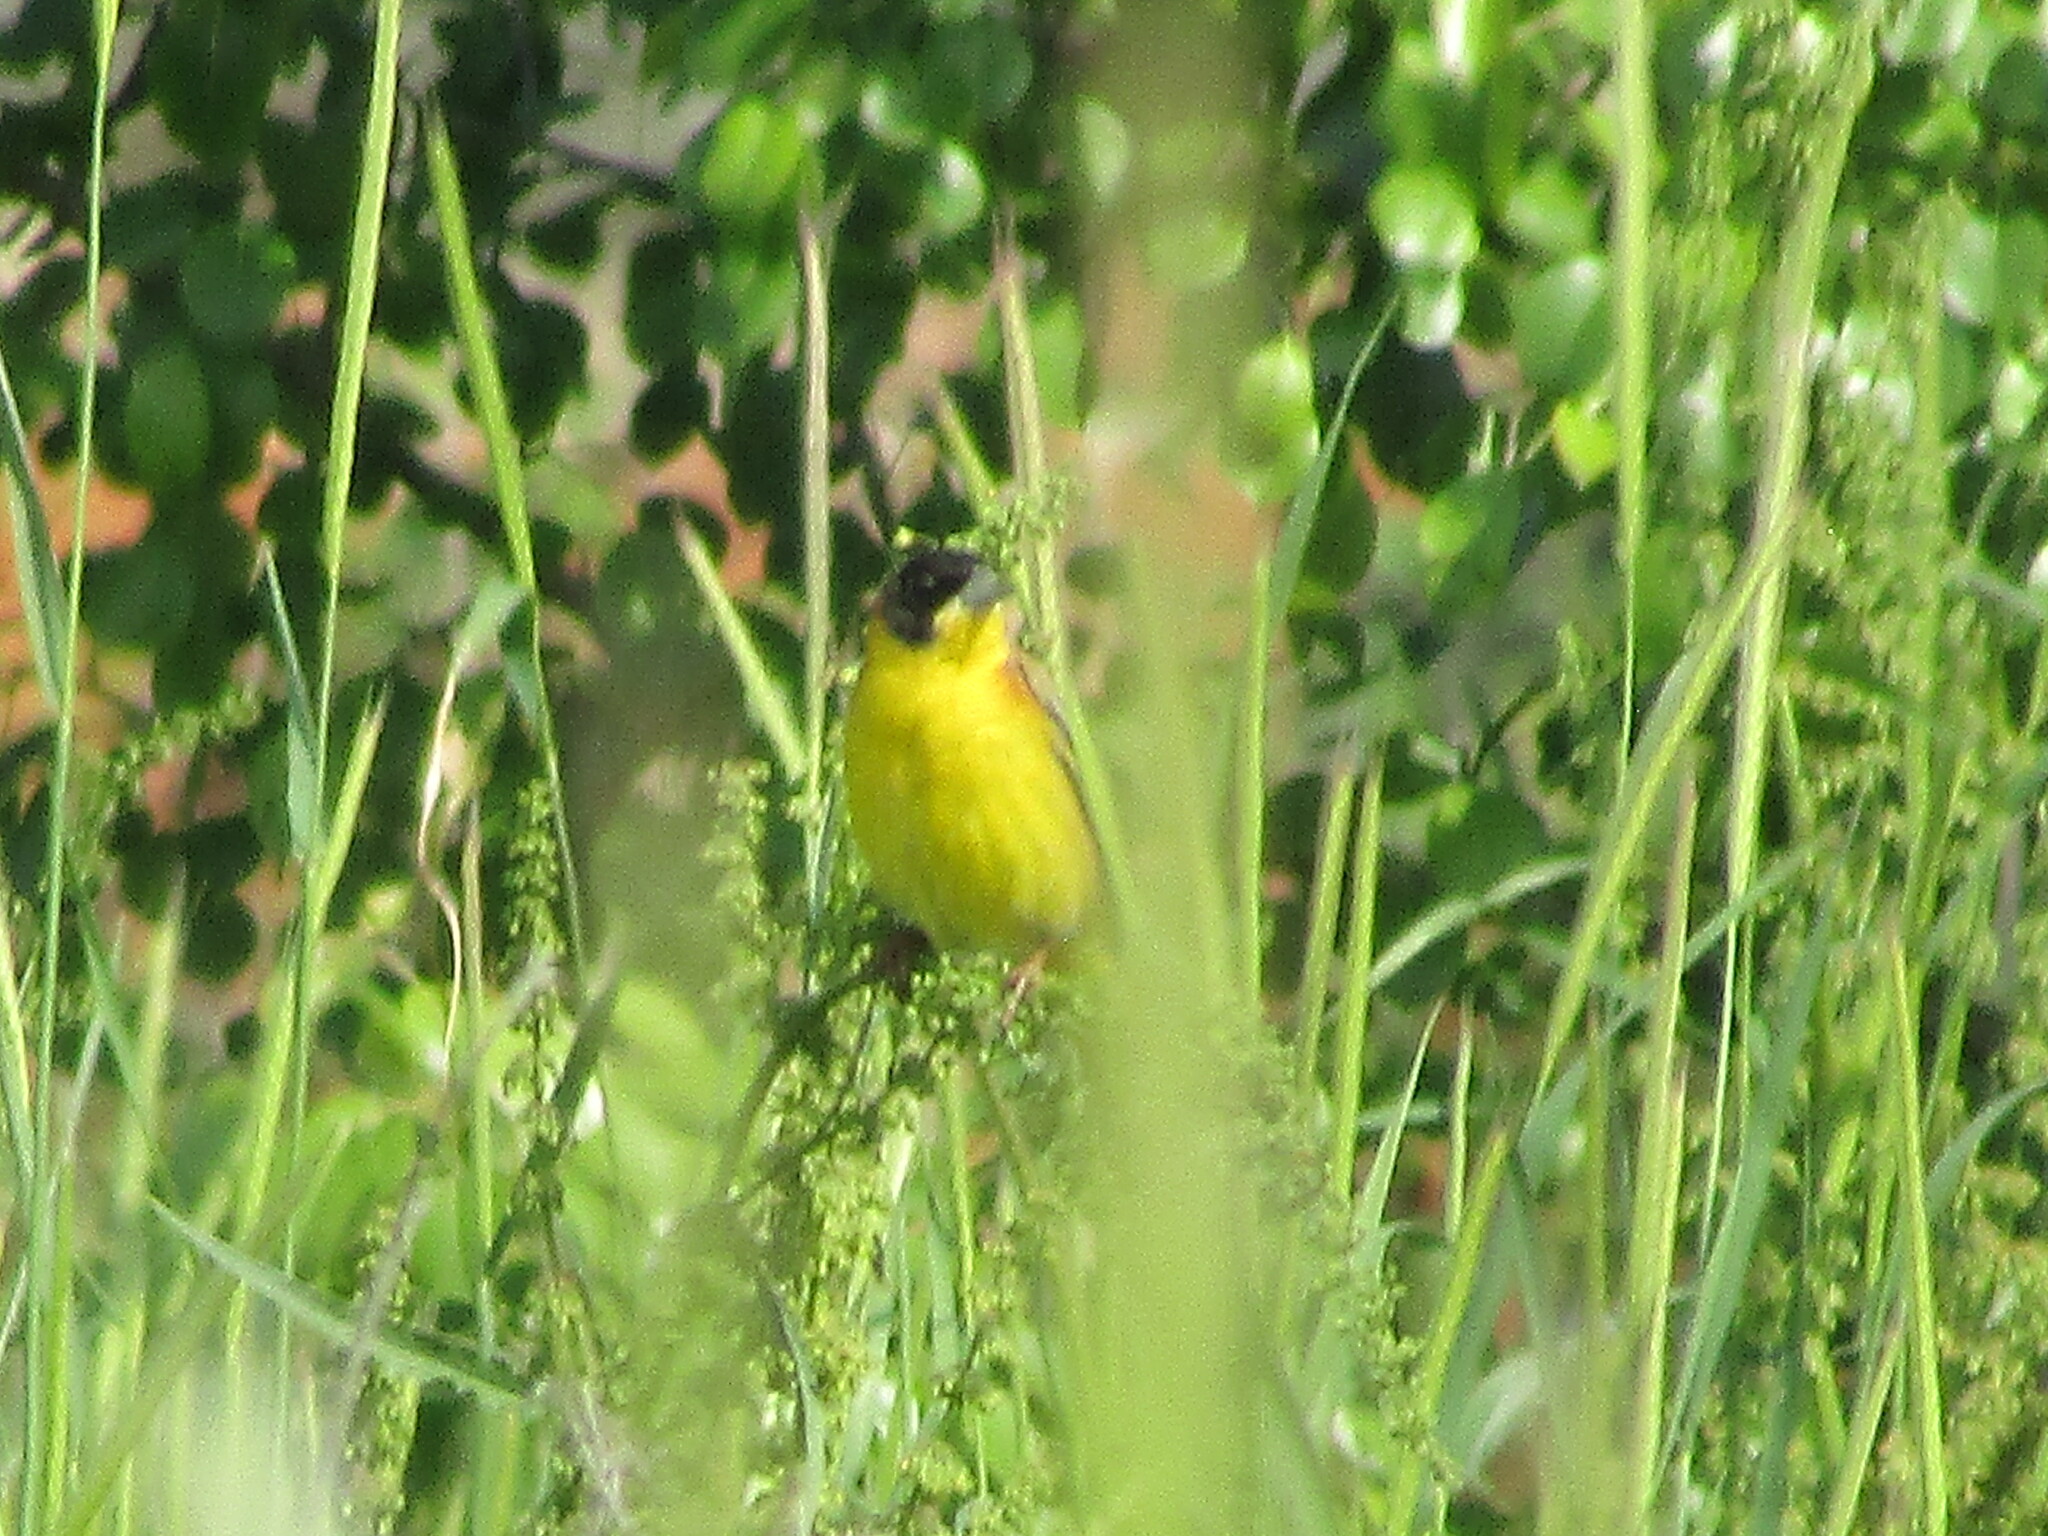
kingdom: Animalia
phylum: Chordata
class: Aves
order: Passeriformes
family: Emberizidae
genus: Emberiza
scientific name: Emberiza melanocephala
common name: Black-headed bunting
